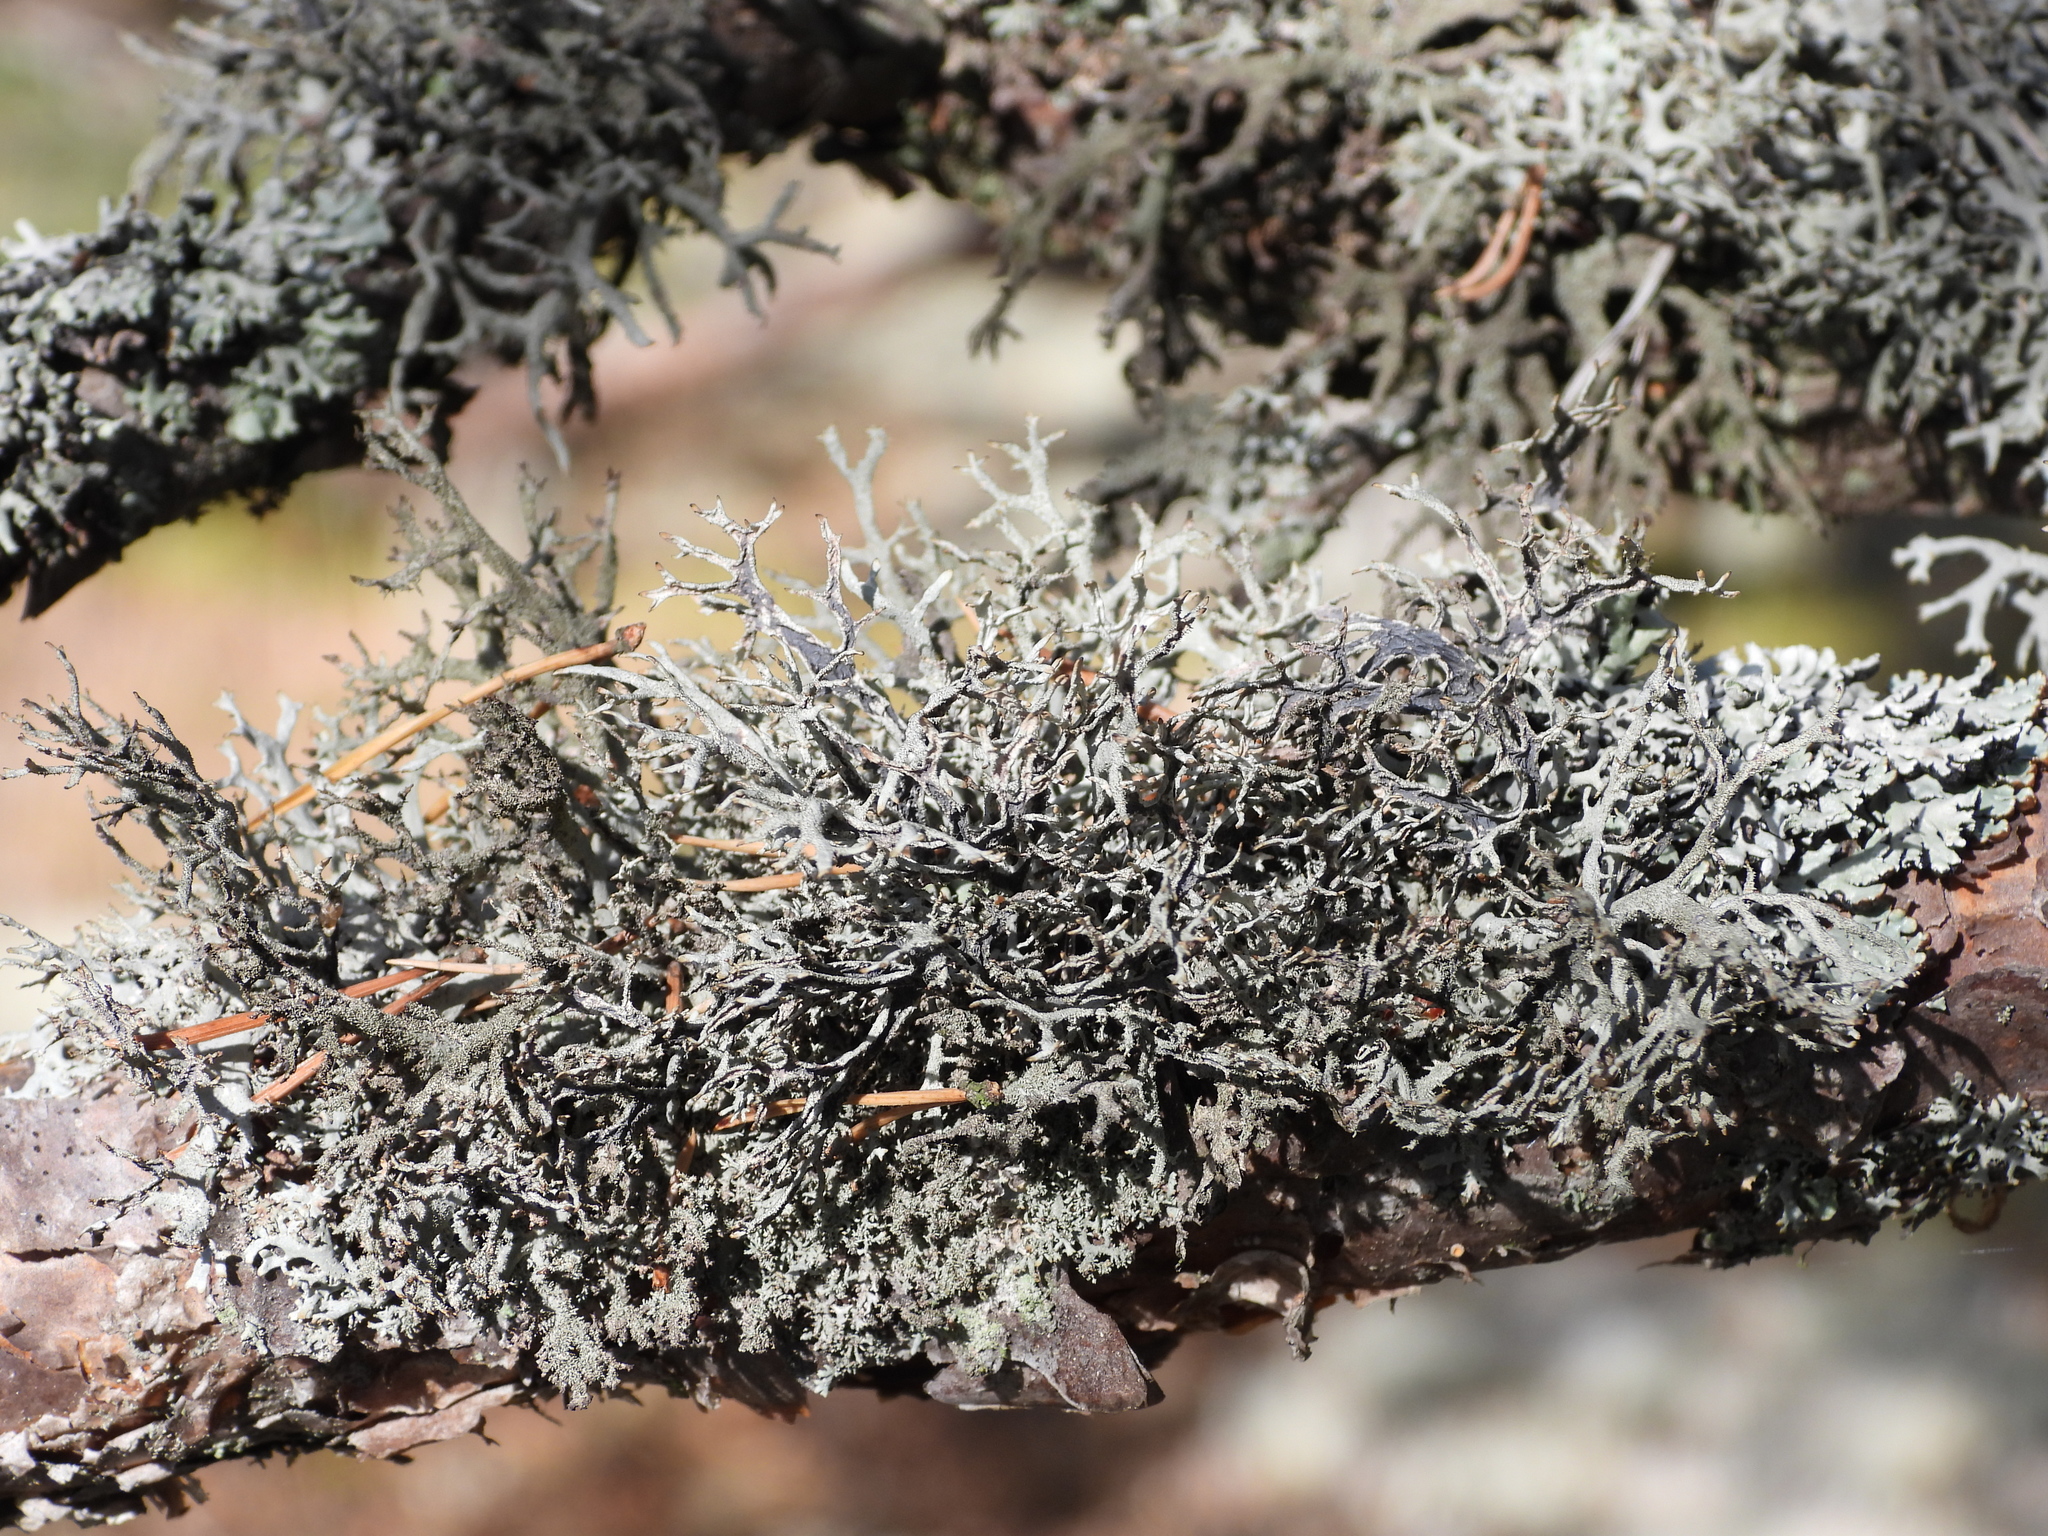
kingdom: Fungi
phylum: Ascomycota
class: Lecanoromycetes
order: Lecanorales
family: Parmeliaceae
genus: Pseudevernia
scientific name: Pseudevernia furfuracea
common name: Tree moss
